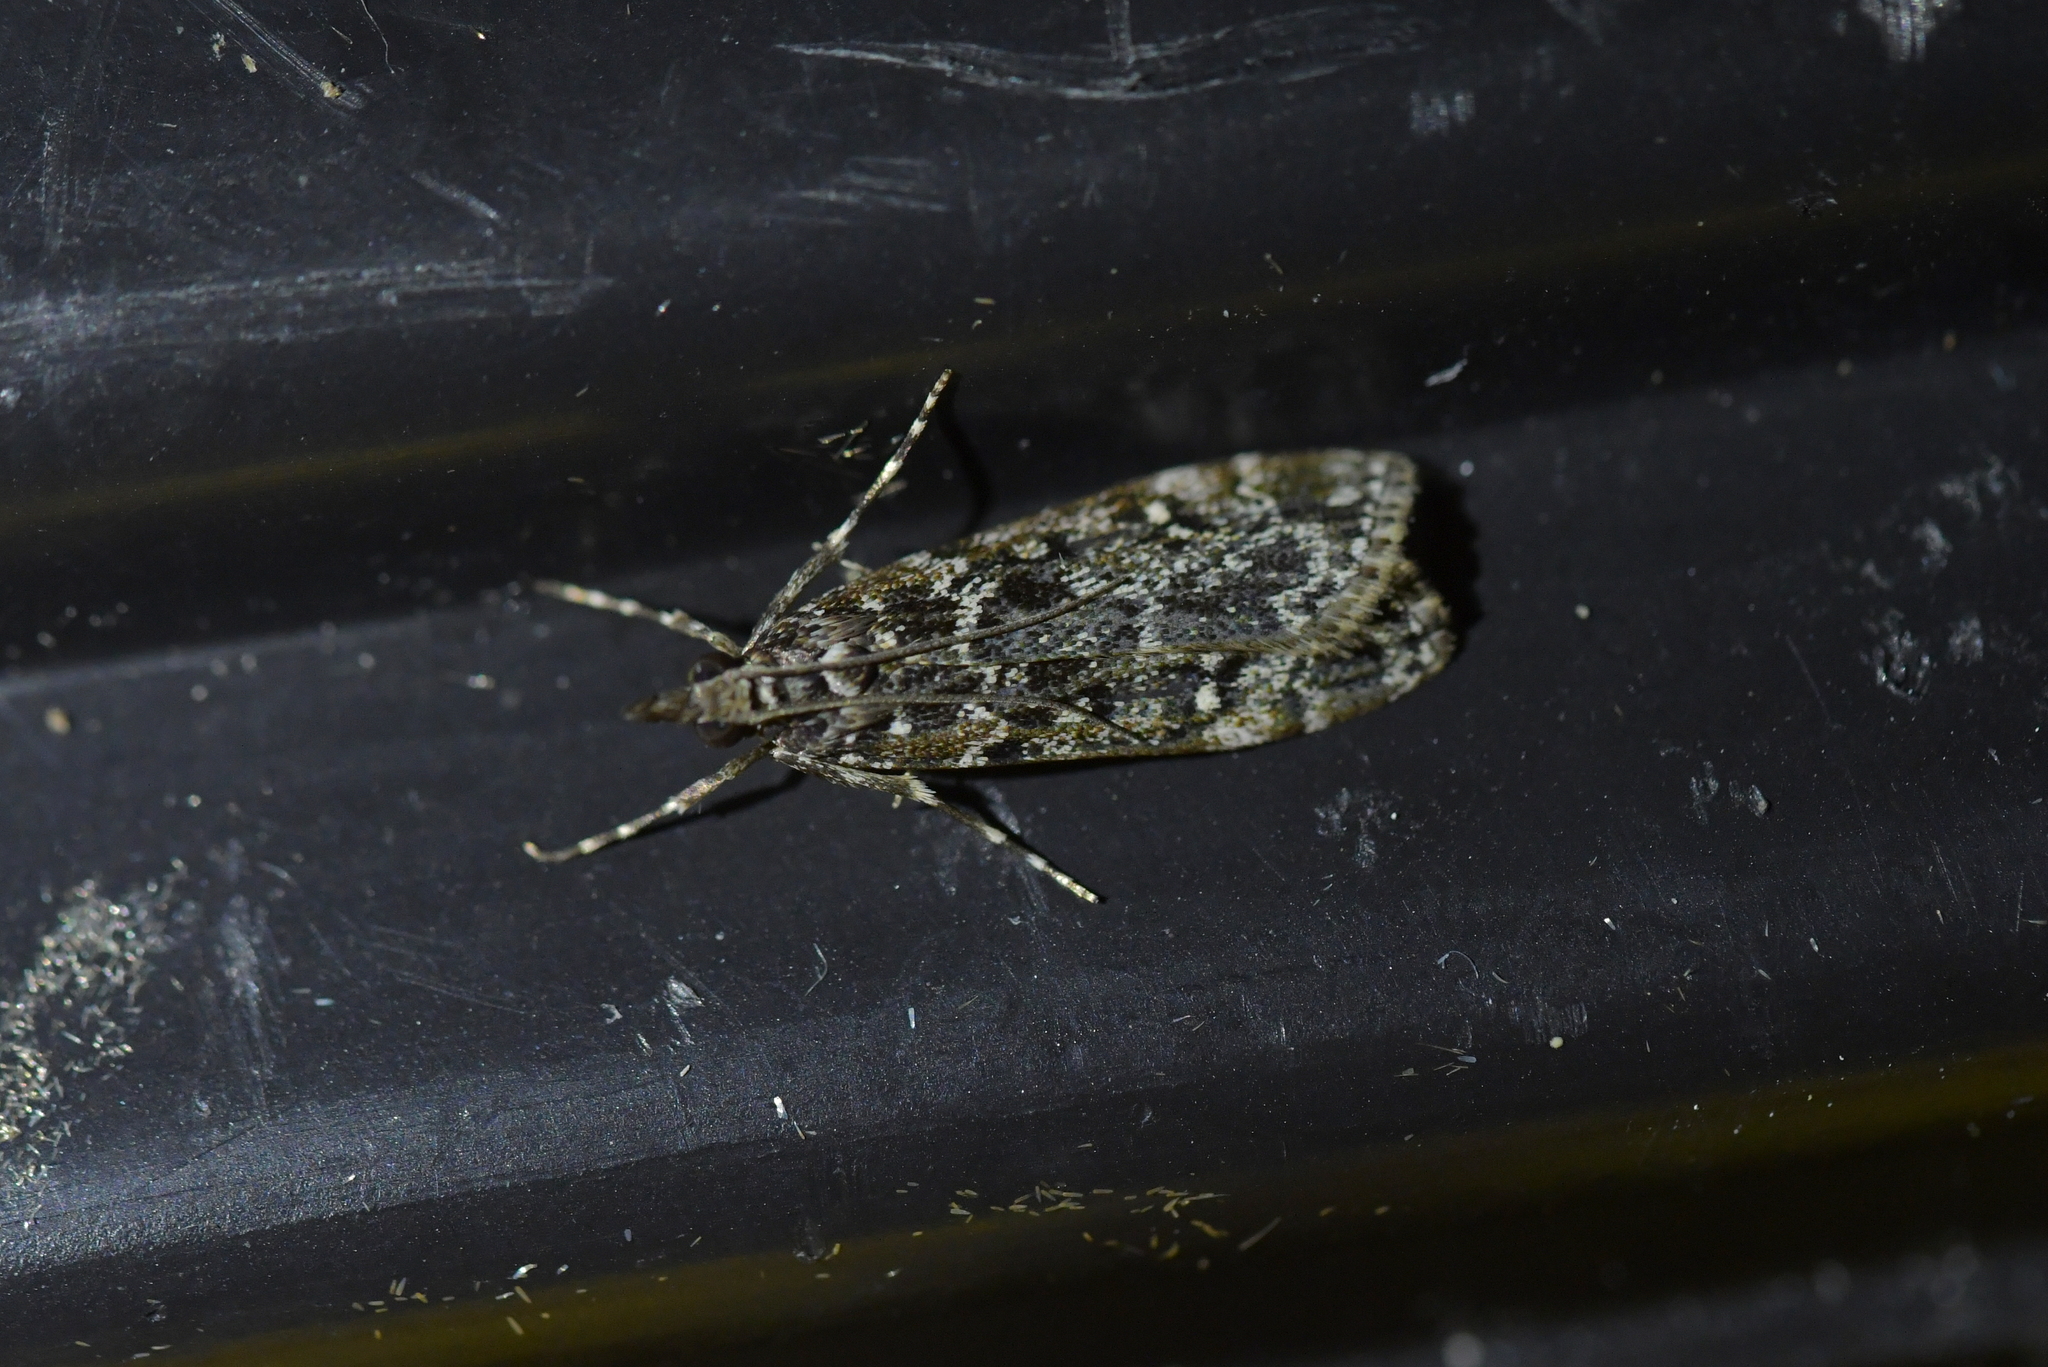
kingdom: Animalia
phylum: Arthropoda
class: Insecta
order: Lepidoptera
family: Crambidae
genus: Eudonia
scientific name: Eudonia philerga
